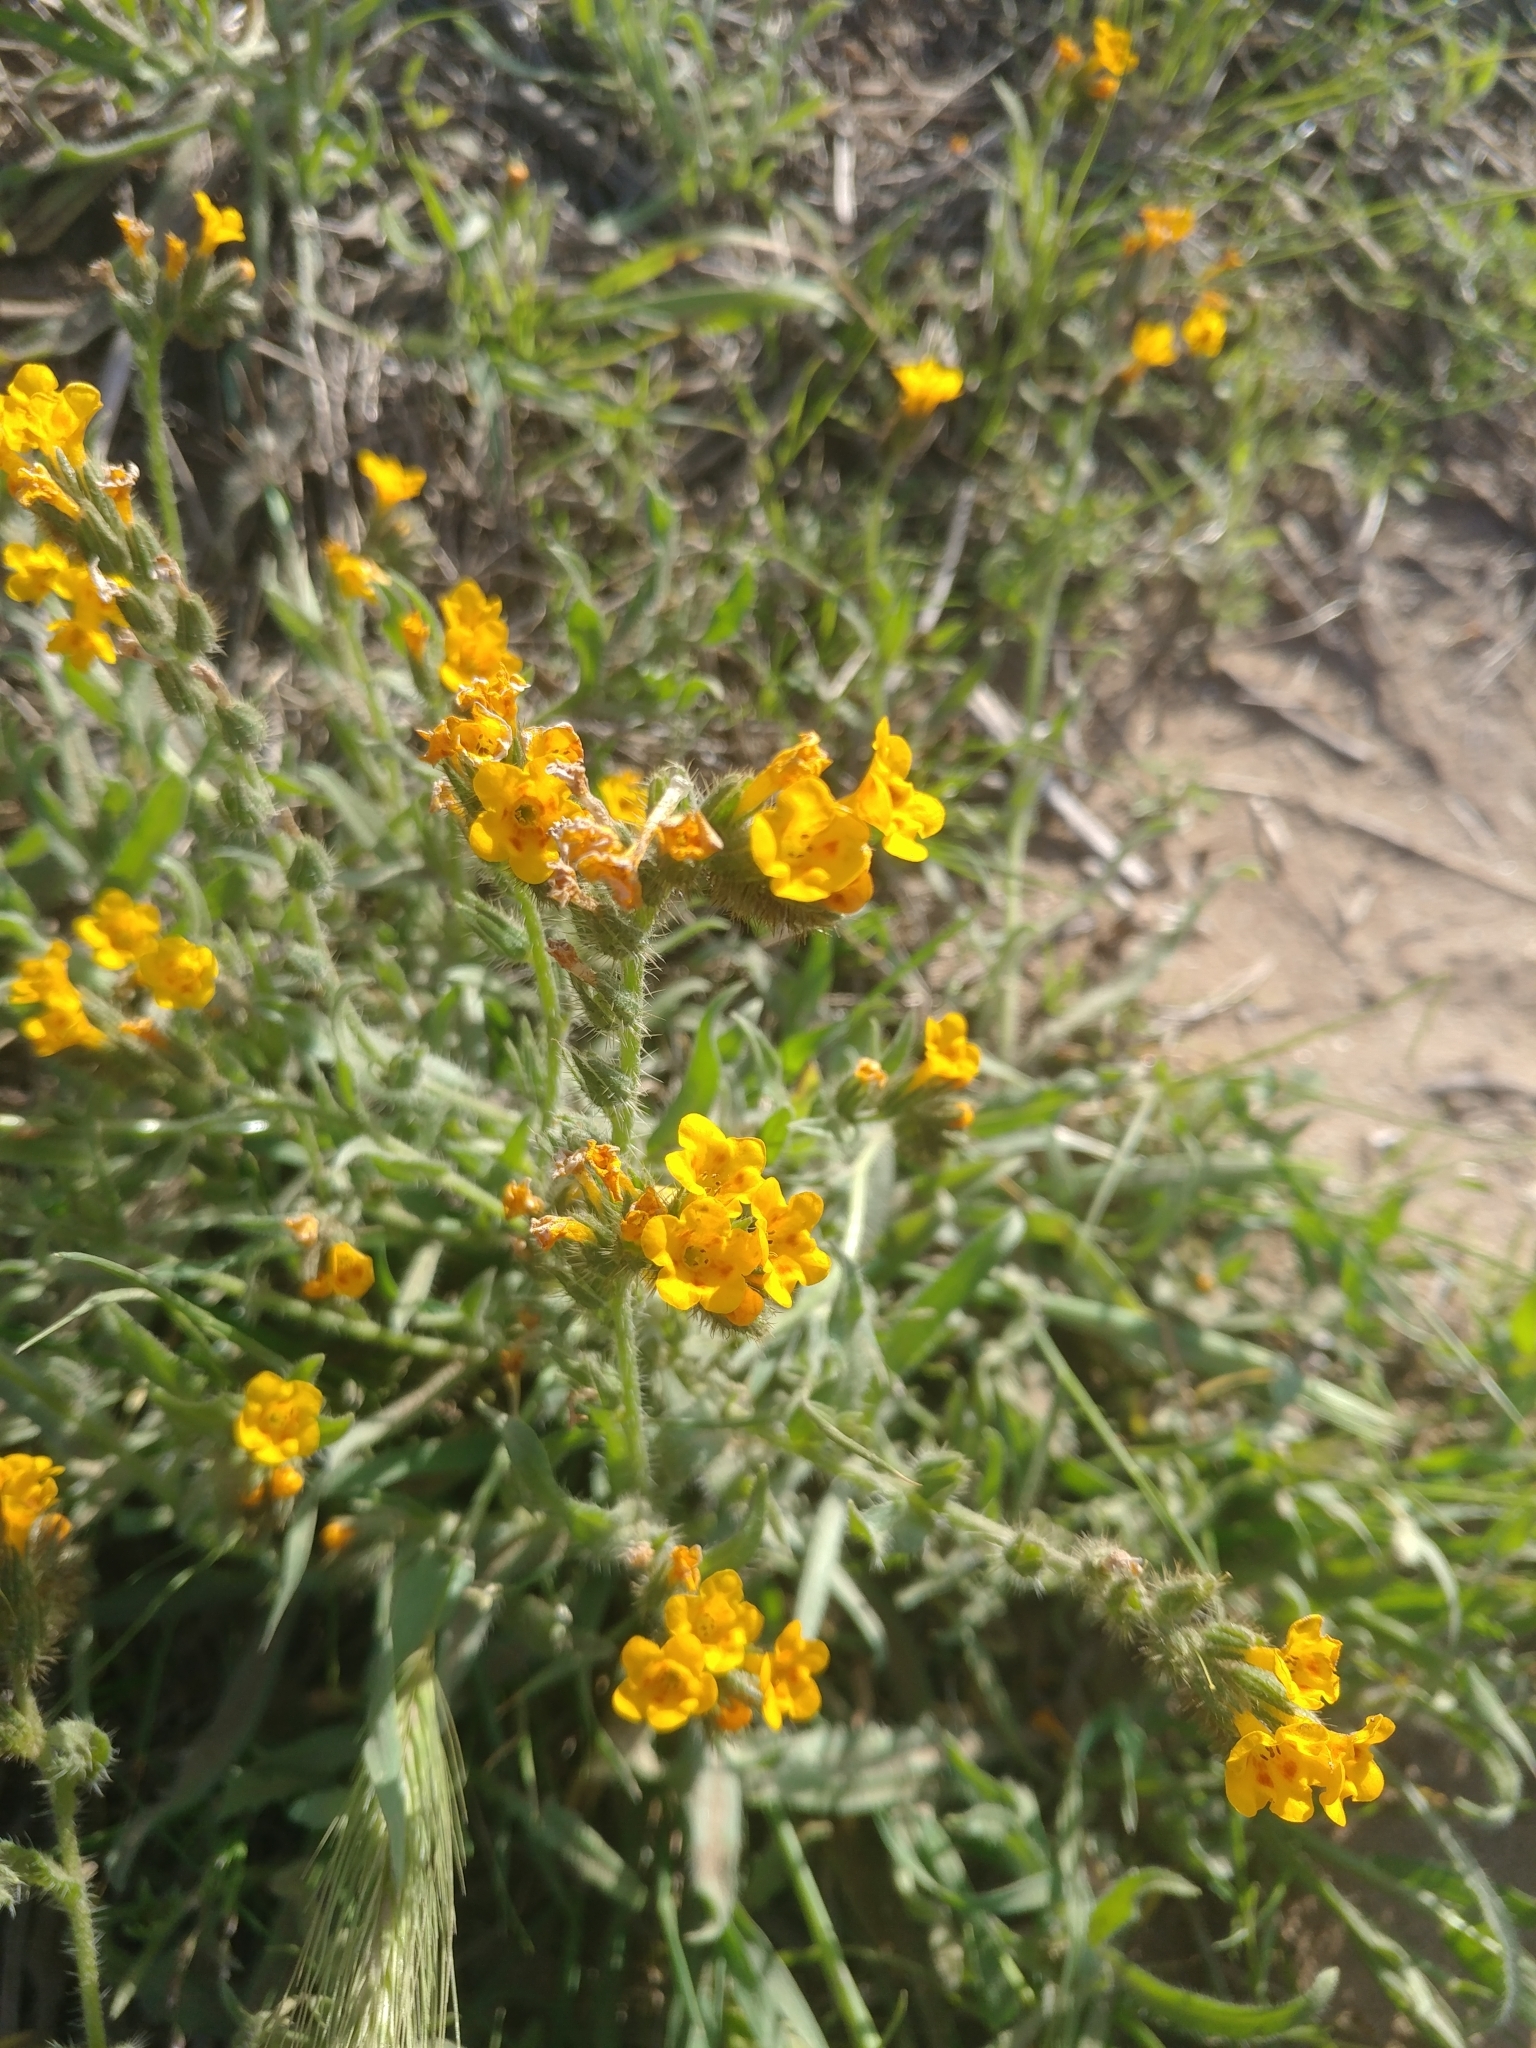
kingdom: Plantae
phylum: Tracheophyta
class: Magnoliopsida
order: Boraginales
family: Boraginaceae
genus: Amsinckia
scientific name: Amsinckia menziesii
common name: Menzies' fiddleneck
